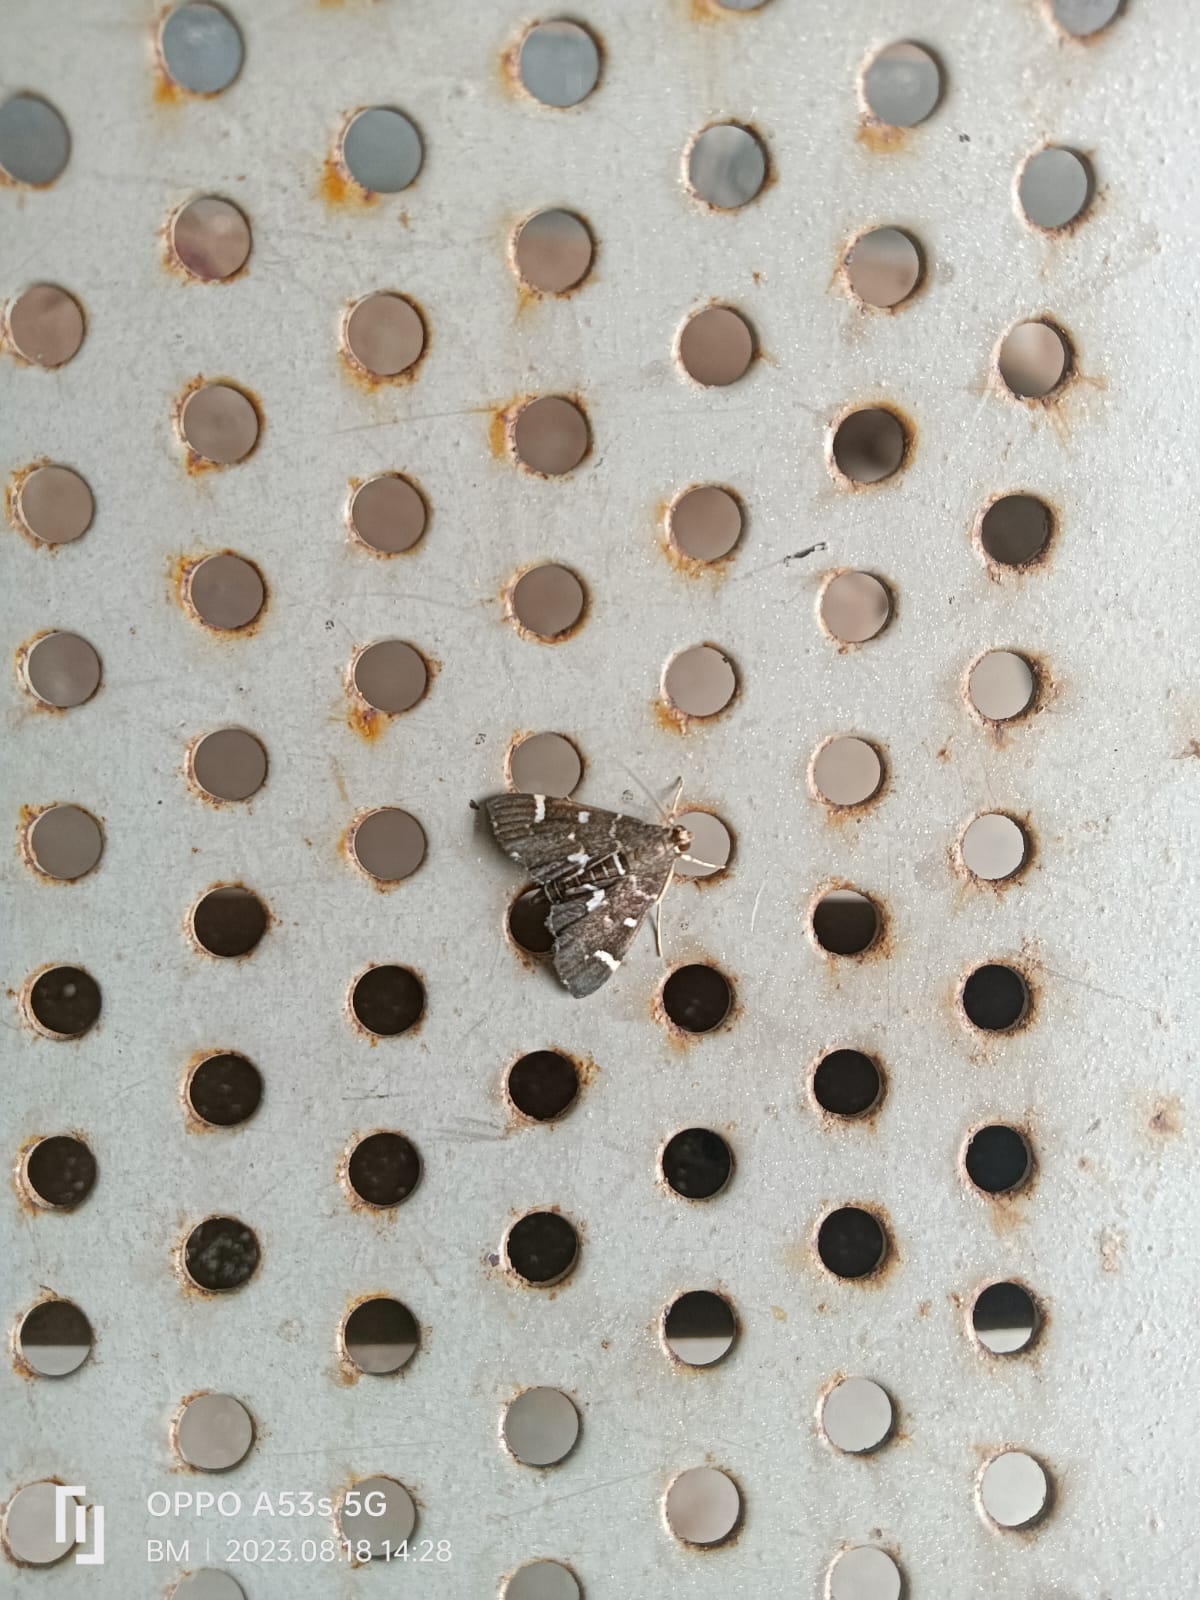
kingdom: Animalia
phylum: Arthropoda
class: Insecta
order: Lepidoptera
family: Crambidae
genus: Hymenia
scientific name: Hymenia perspectalis
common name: Spotted beet webworm
